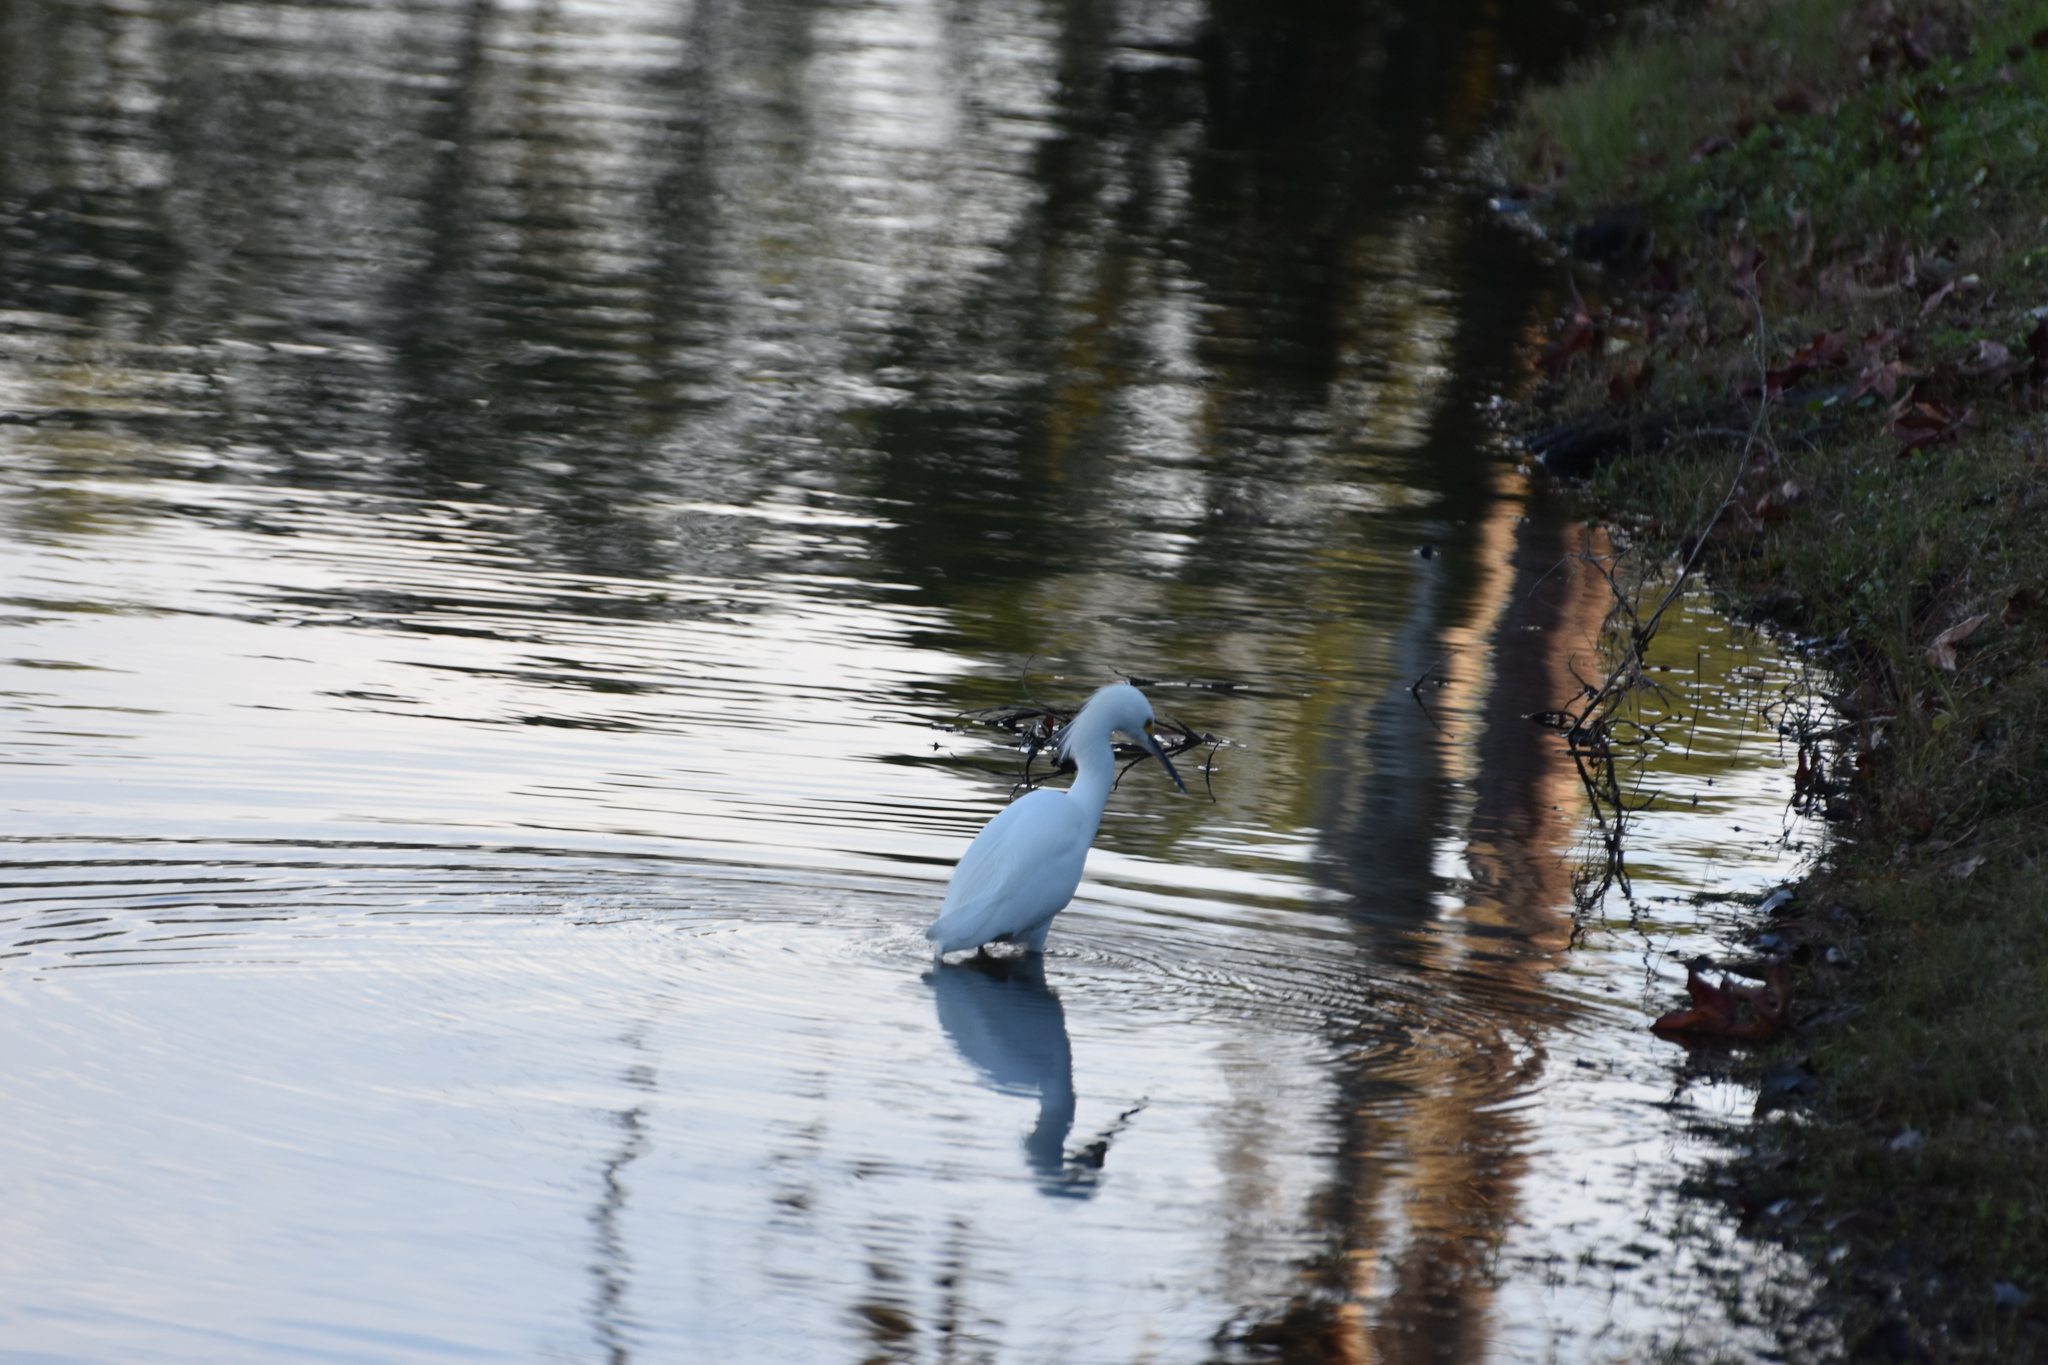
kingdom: Animalia
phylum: Chordata
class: Aves
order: Pelecaniformes
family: Ardeidae
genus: Egretta
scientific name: Egretta thula
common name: Snowy egret
